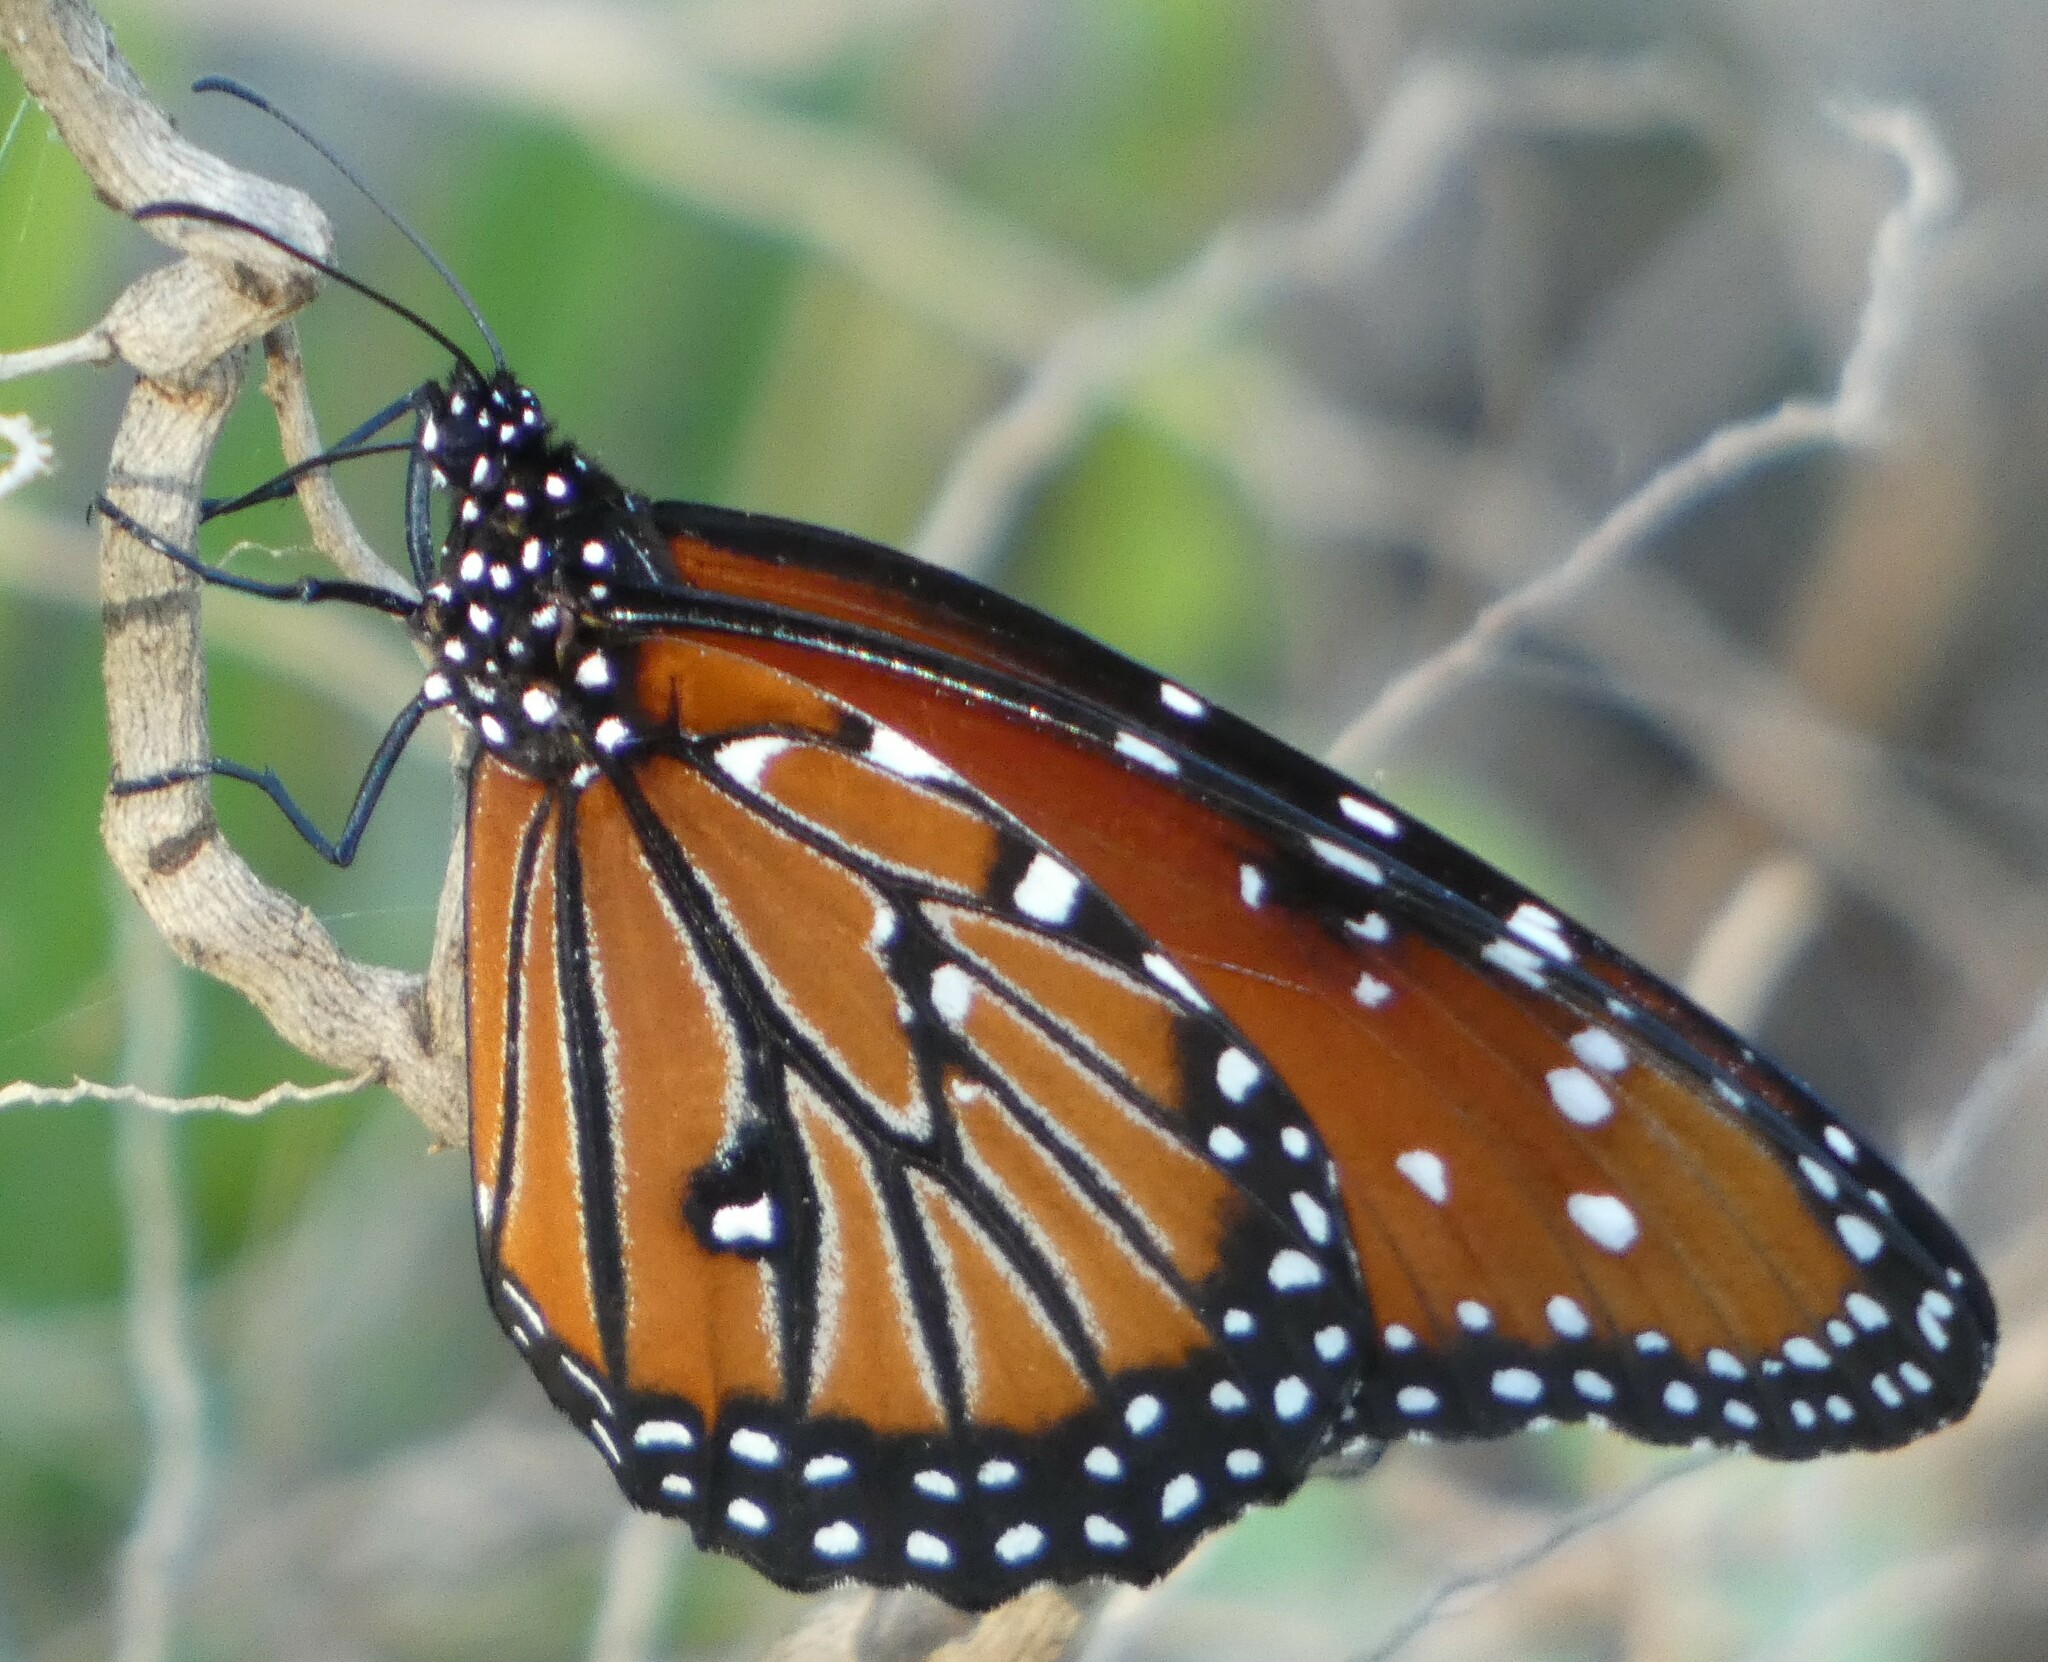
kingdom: Animalia
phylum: Arthropoda
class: Insecta
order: Lepidoptera
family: Nymphalidae
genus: Danaus
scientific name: Danaus gilippus
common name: Queen
